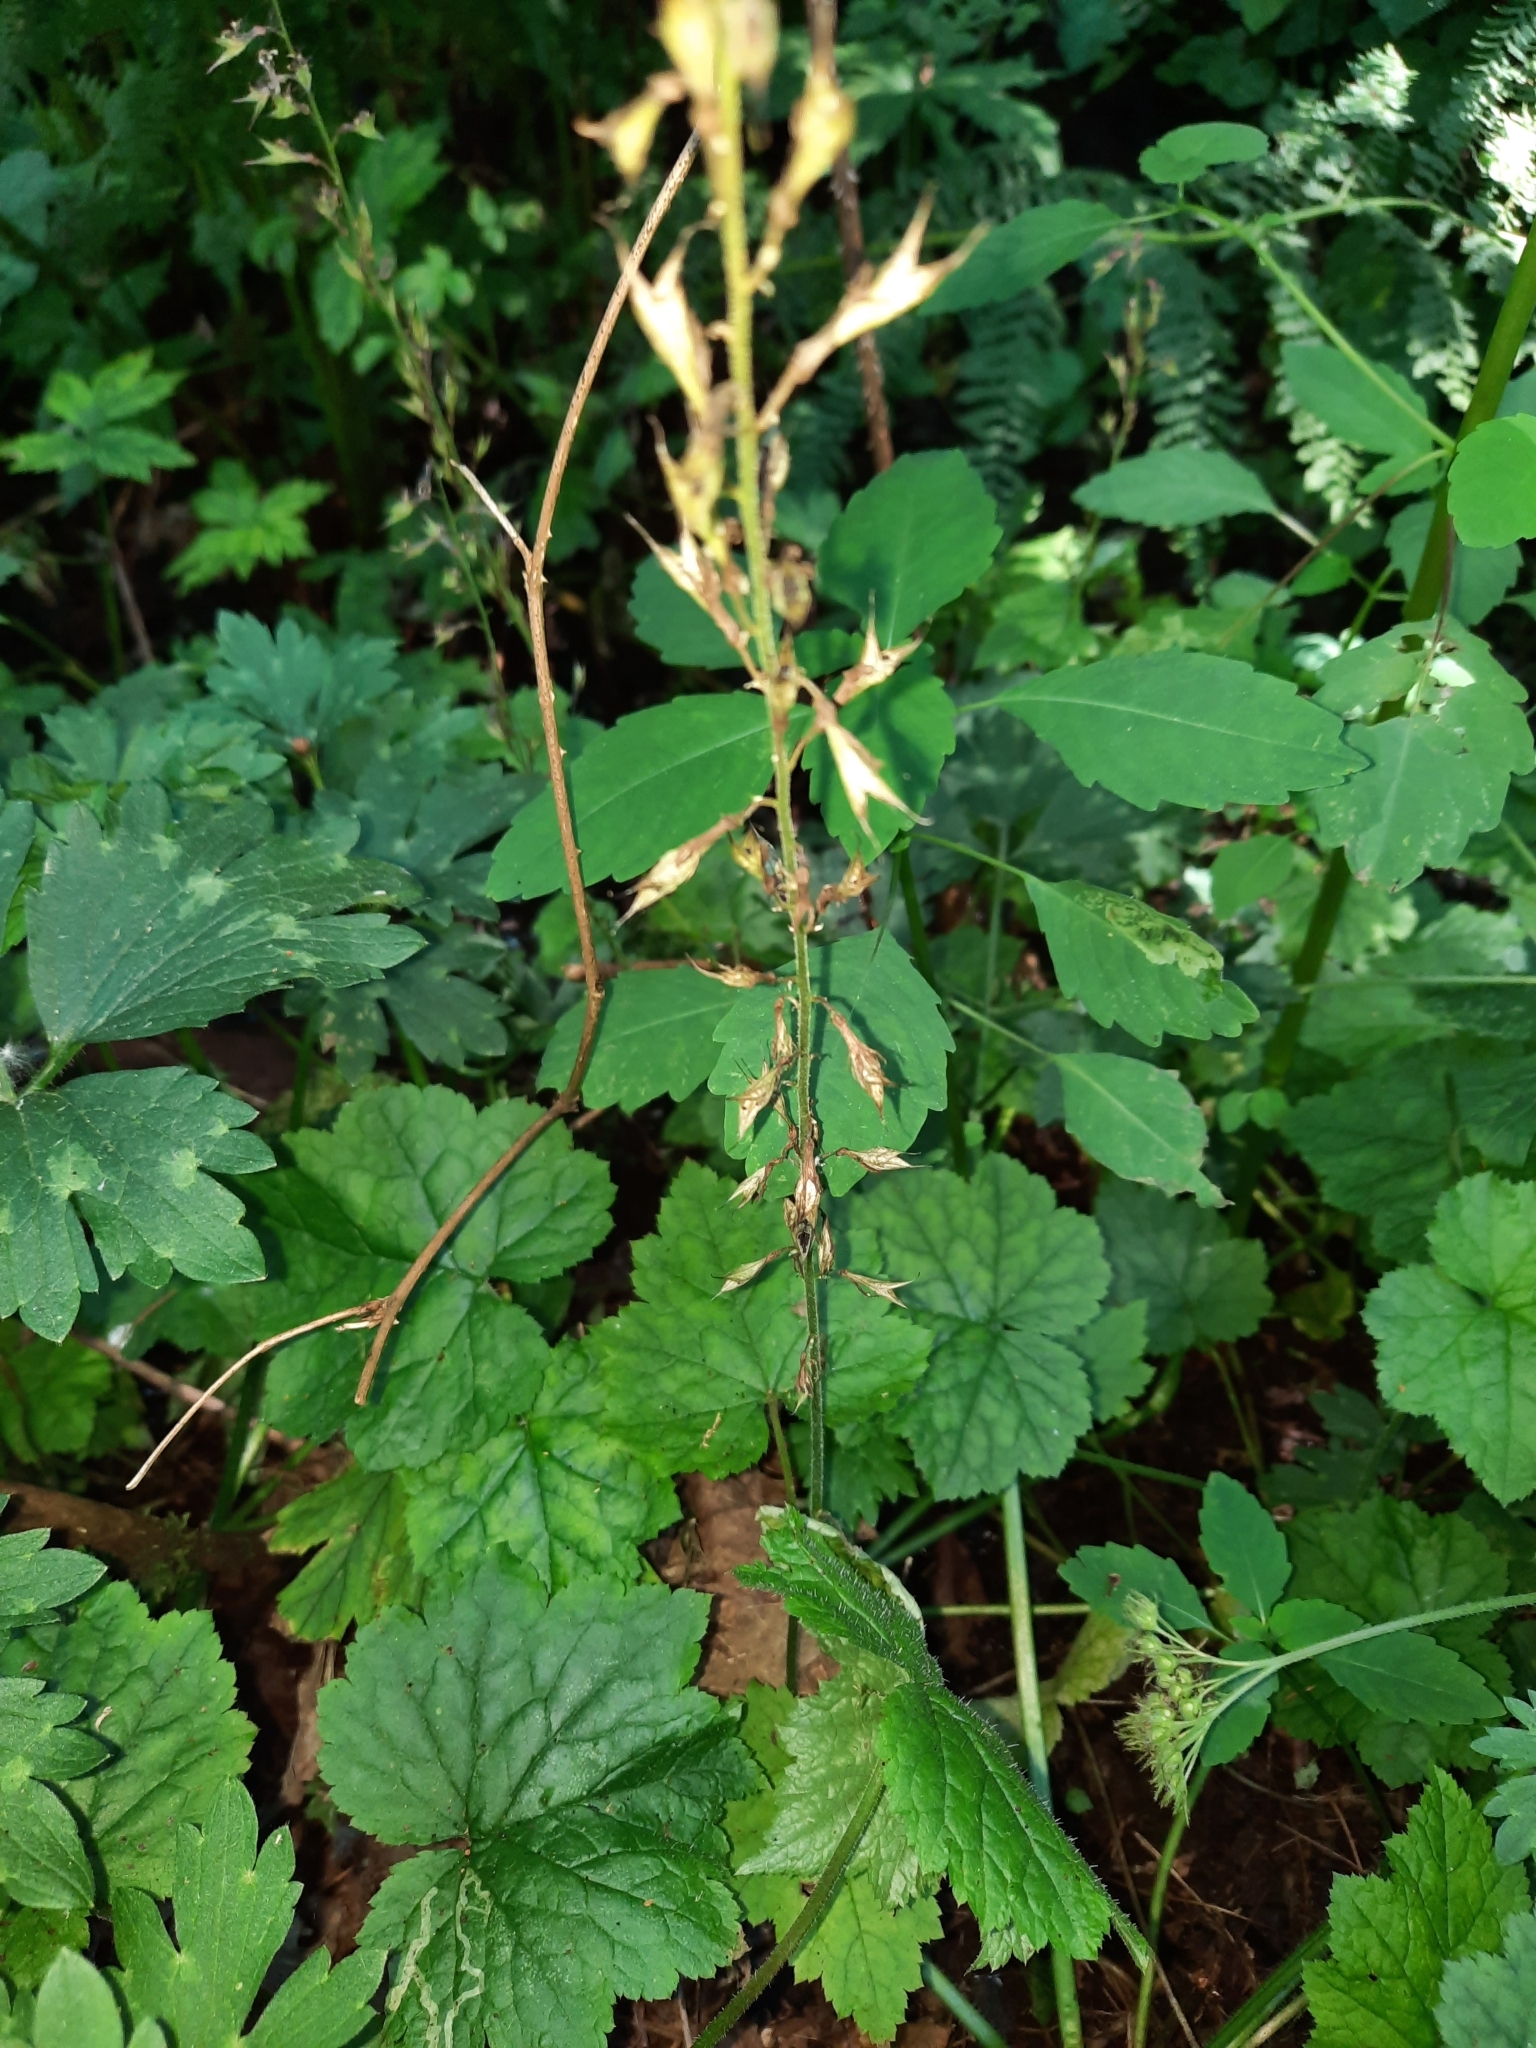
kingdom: Plantae
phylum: Tracheophyta
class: Magnoliopsida
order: Saxifragales
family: Saxifragaceae
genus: Tolmiea
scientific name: Tolmiea menziesii
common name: Pick-a-back-plant
